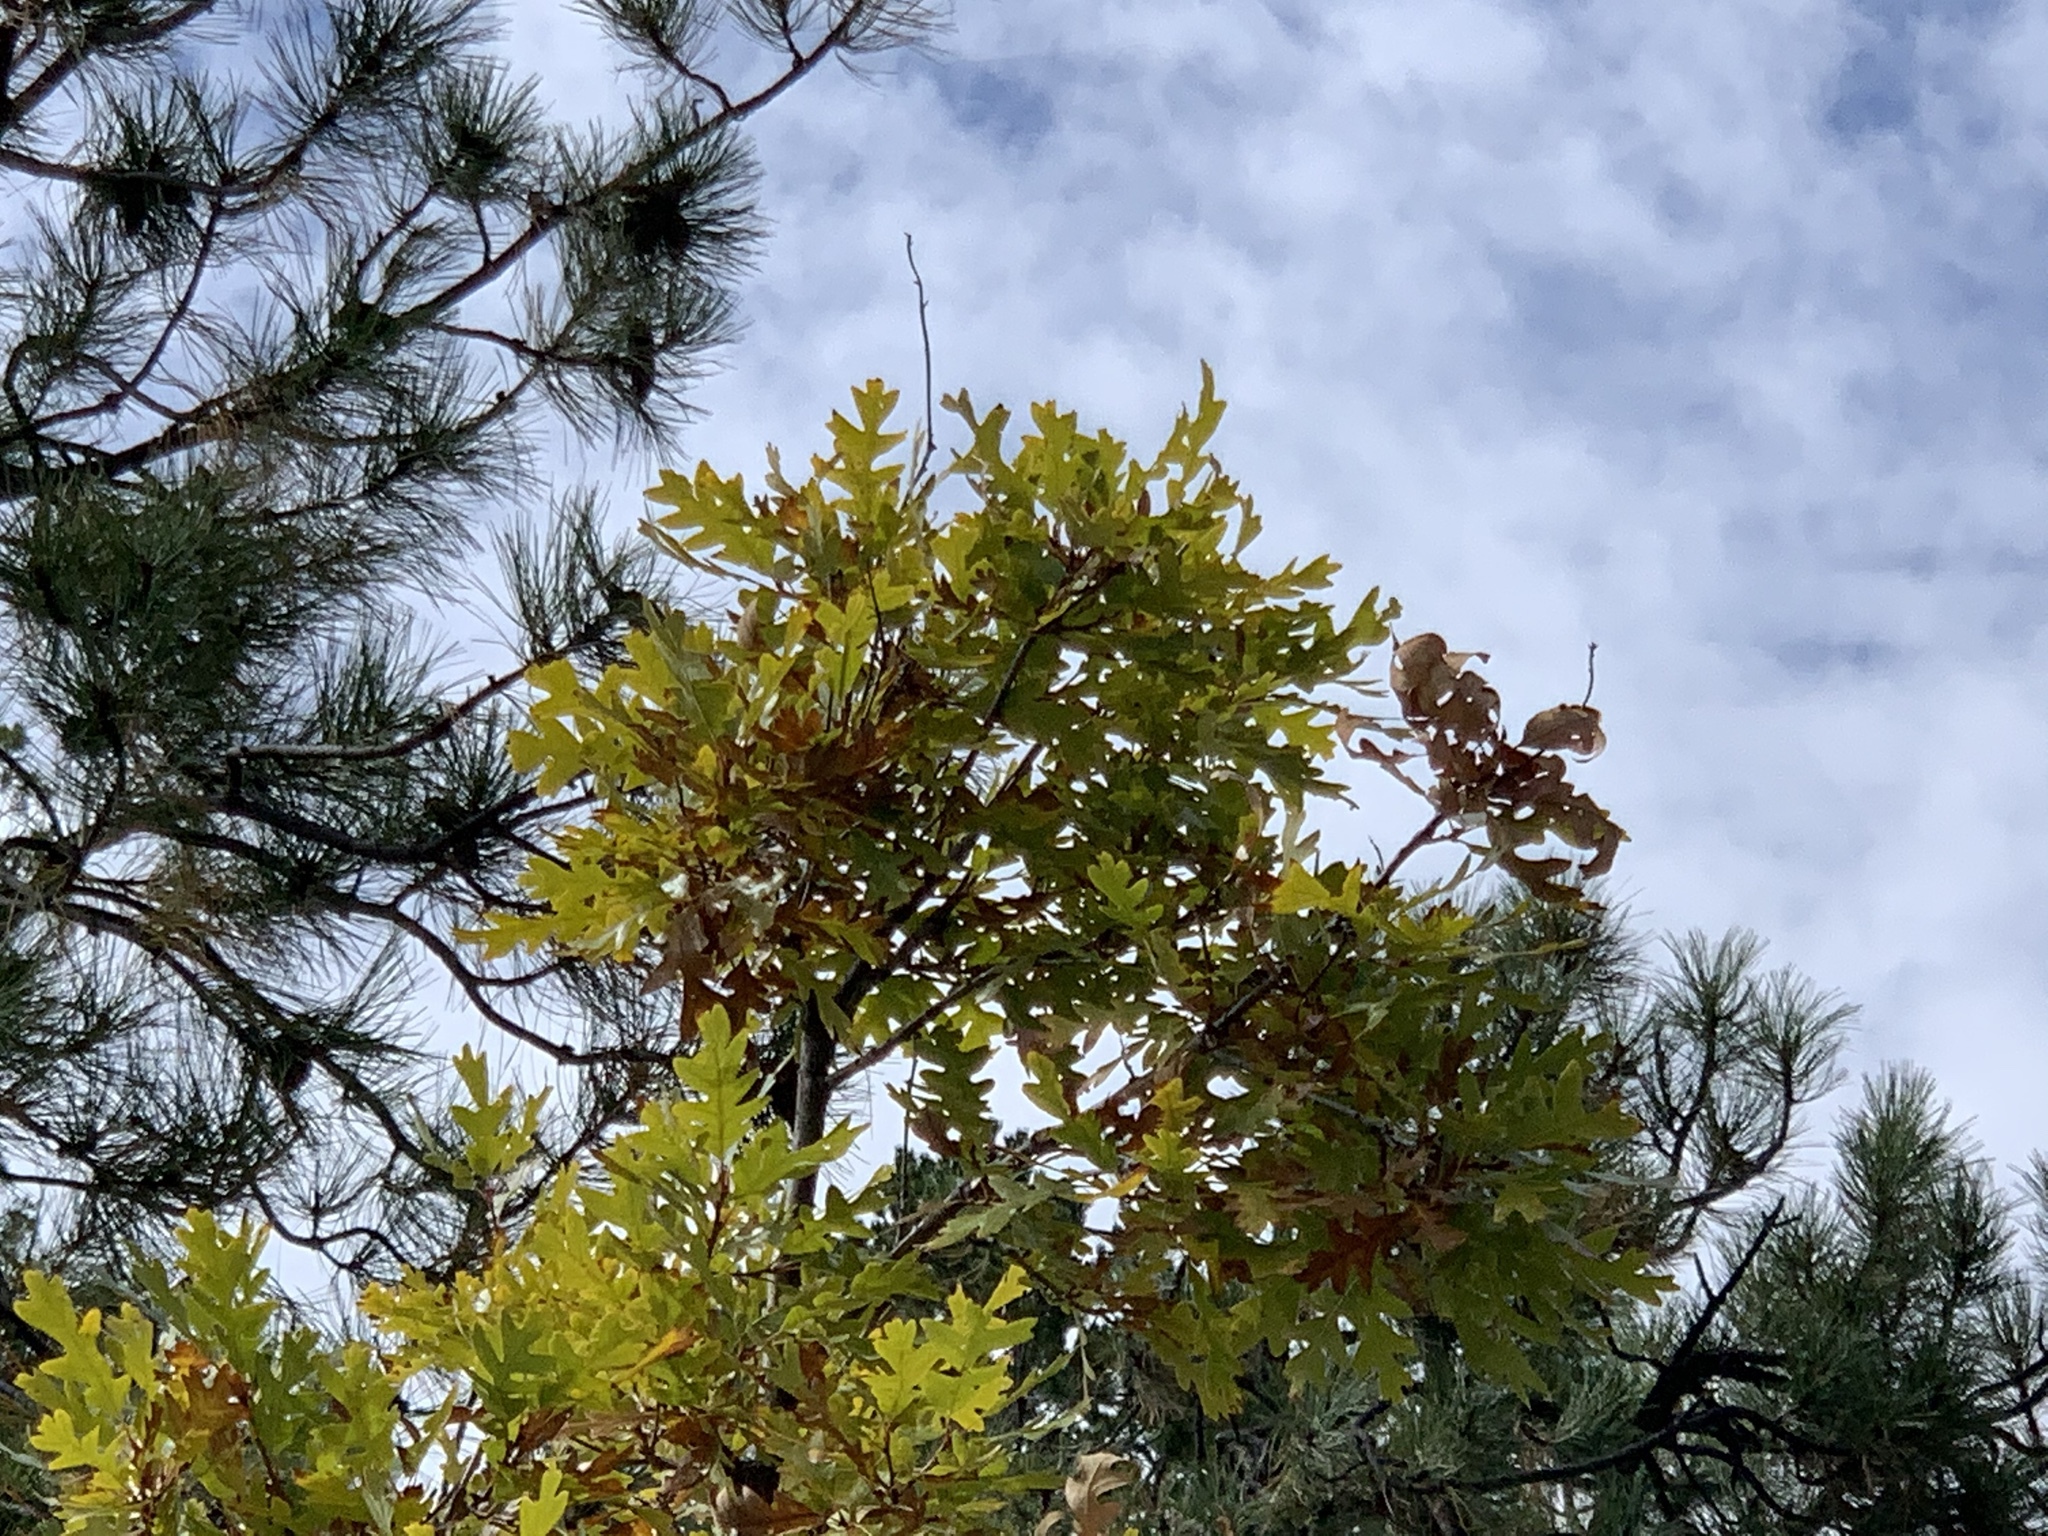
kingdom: Plantae
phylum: Tracheophyta
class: Magnoliopsida
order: Fagales
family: Fagaceae
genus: Quercus
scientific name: Quercus gambelii
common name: Gambel oak
